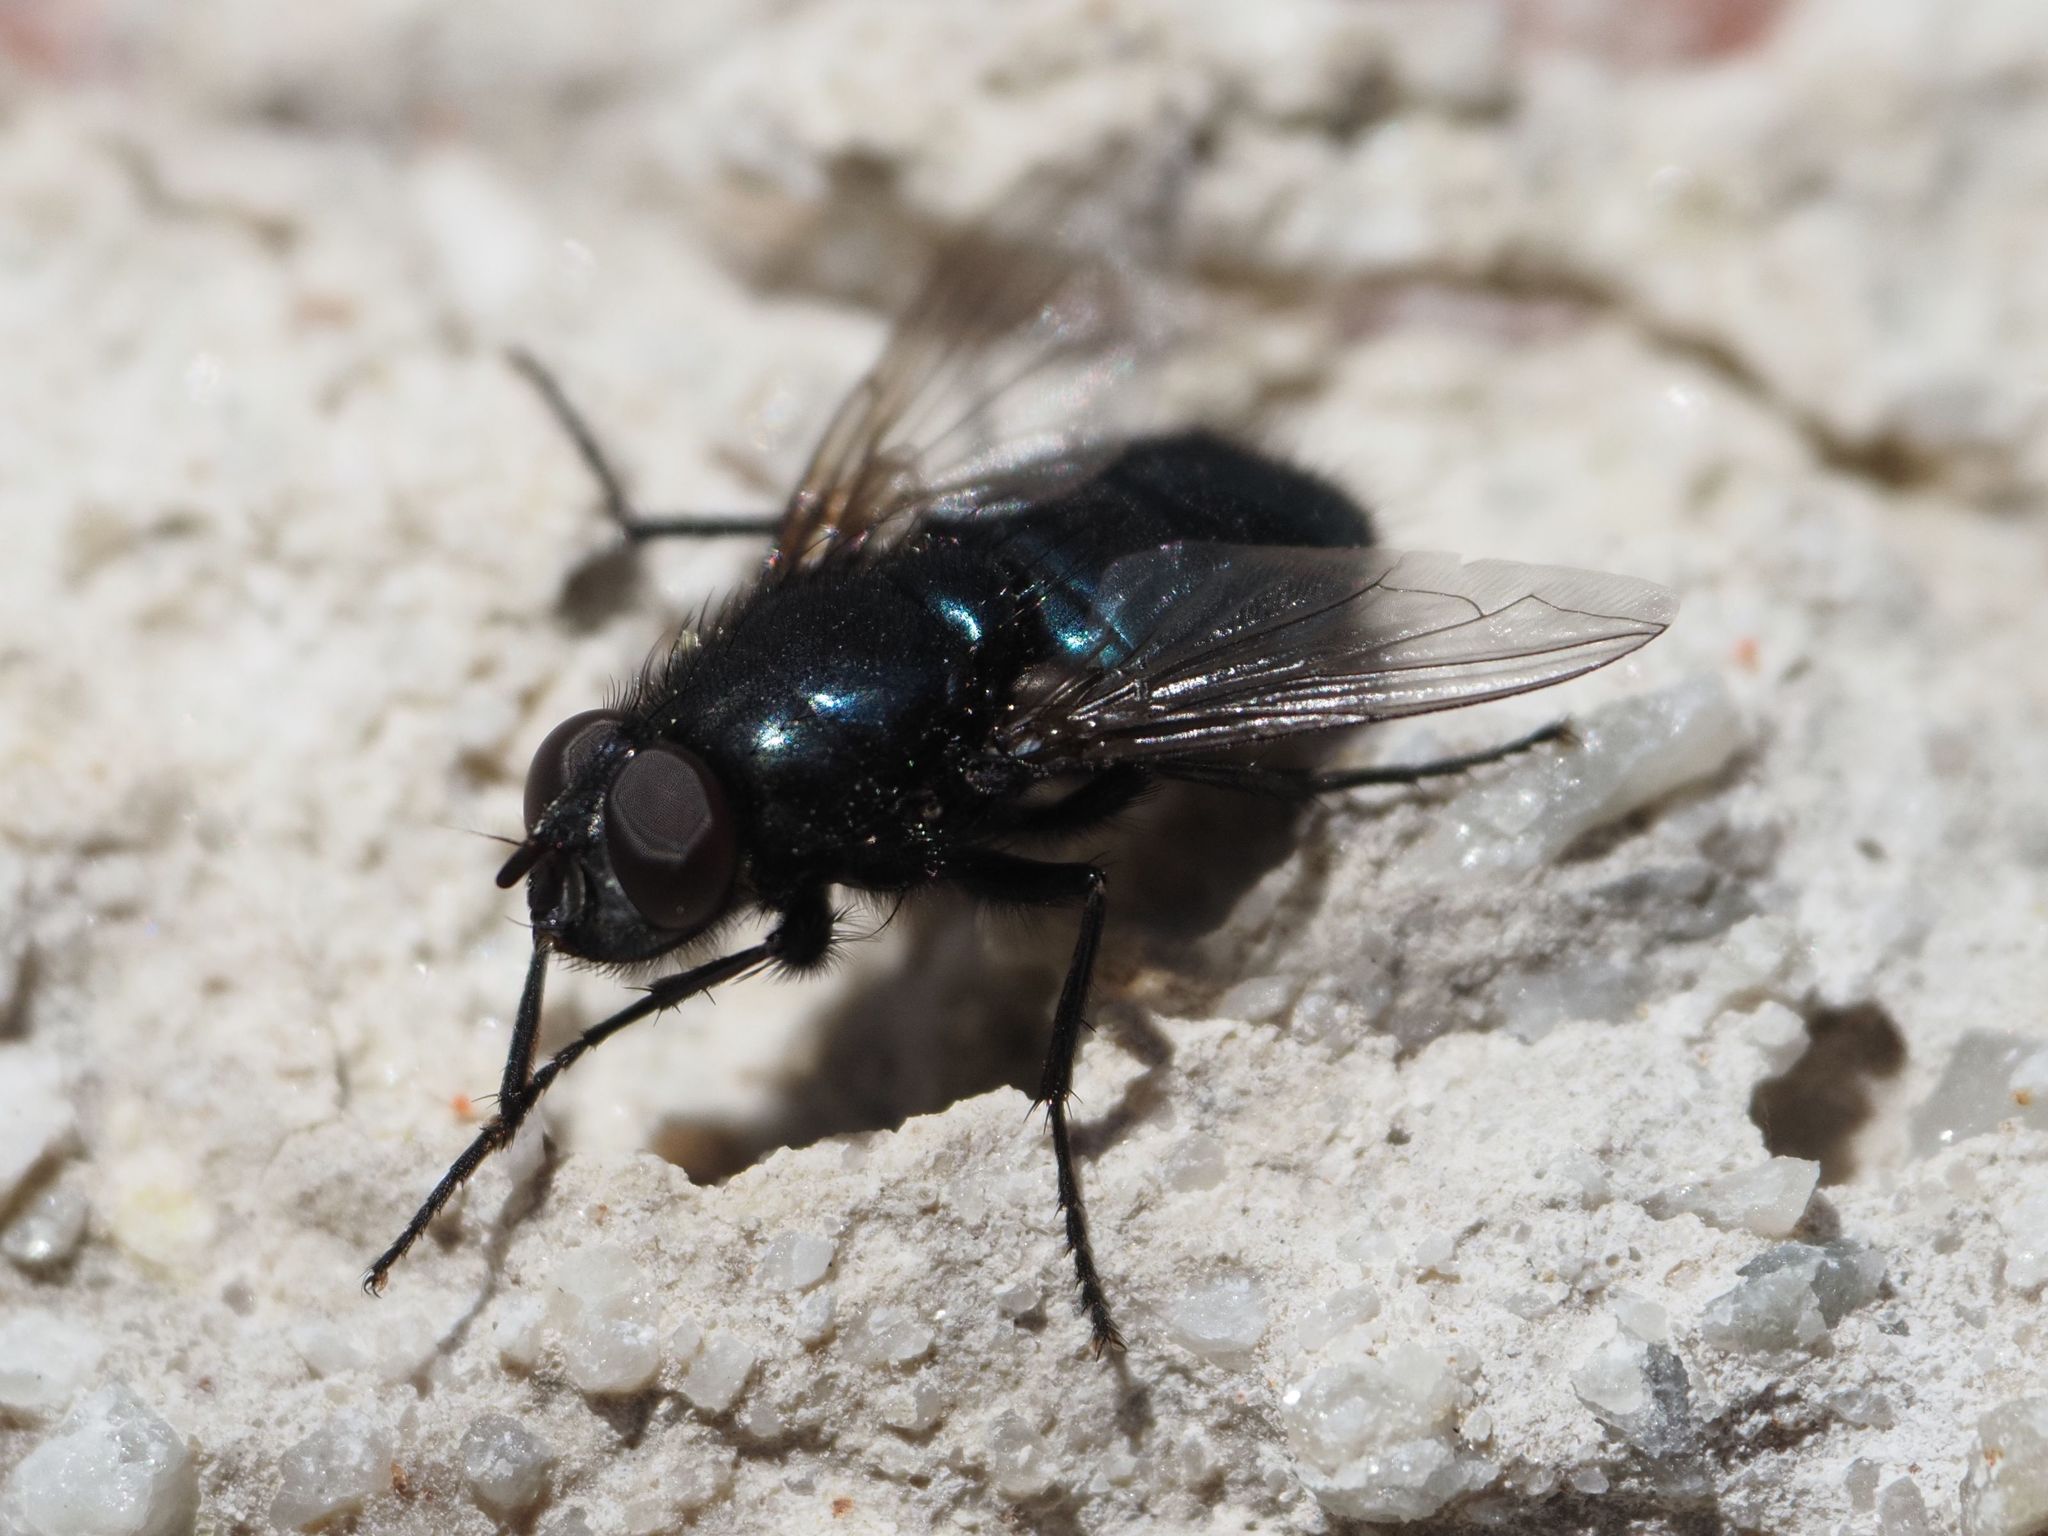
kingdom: Animalia
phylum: Arthropoda
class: Insecta
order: Diptera
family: Calliphoridae
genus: Protophormia
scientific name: Protophormia terraenovae
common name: Blackbottle
